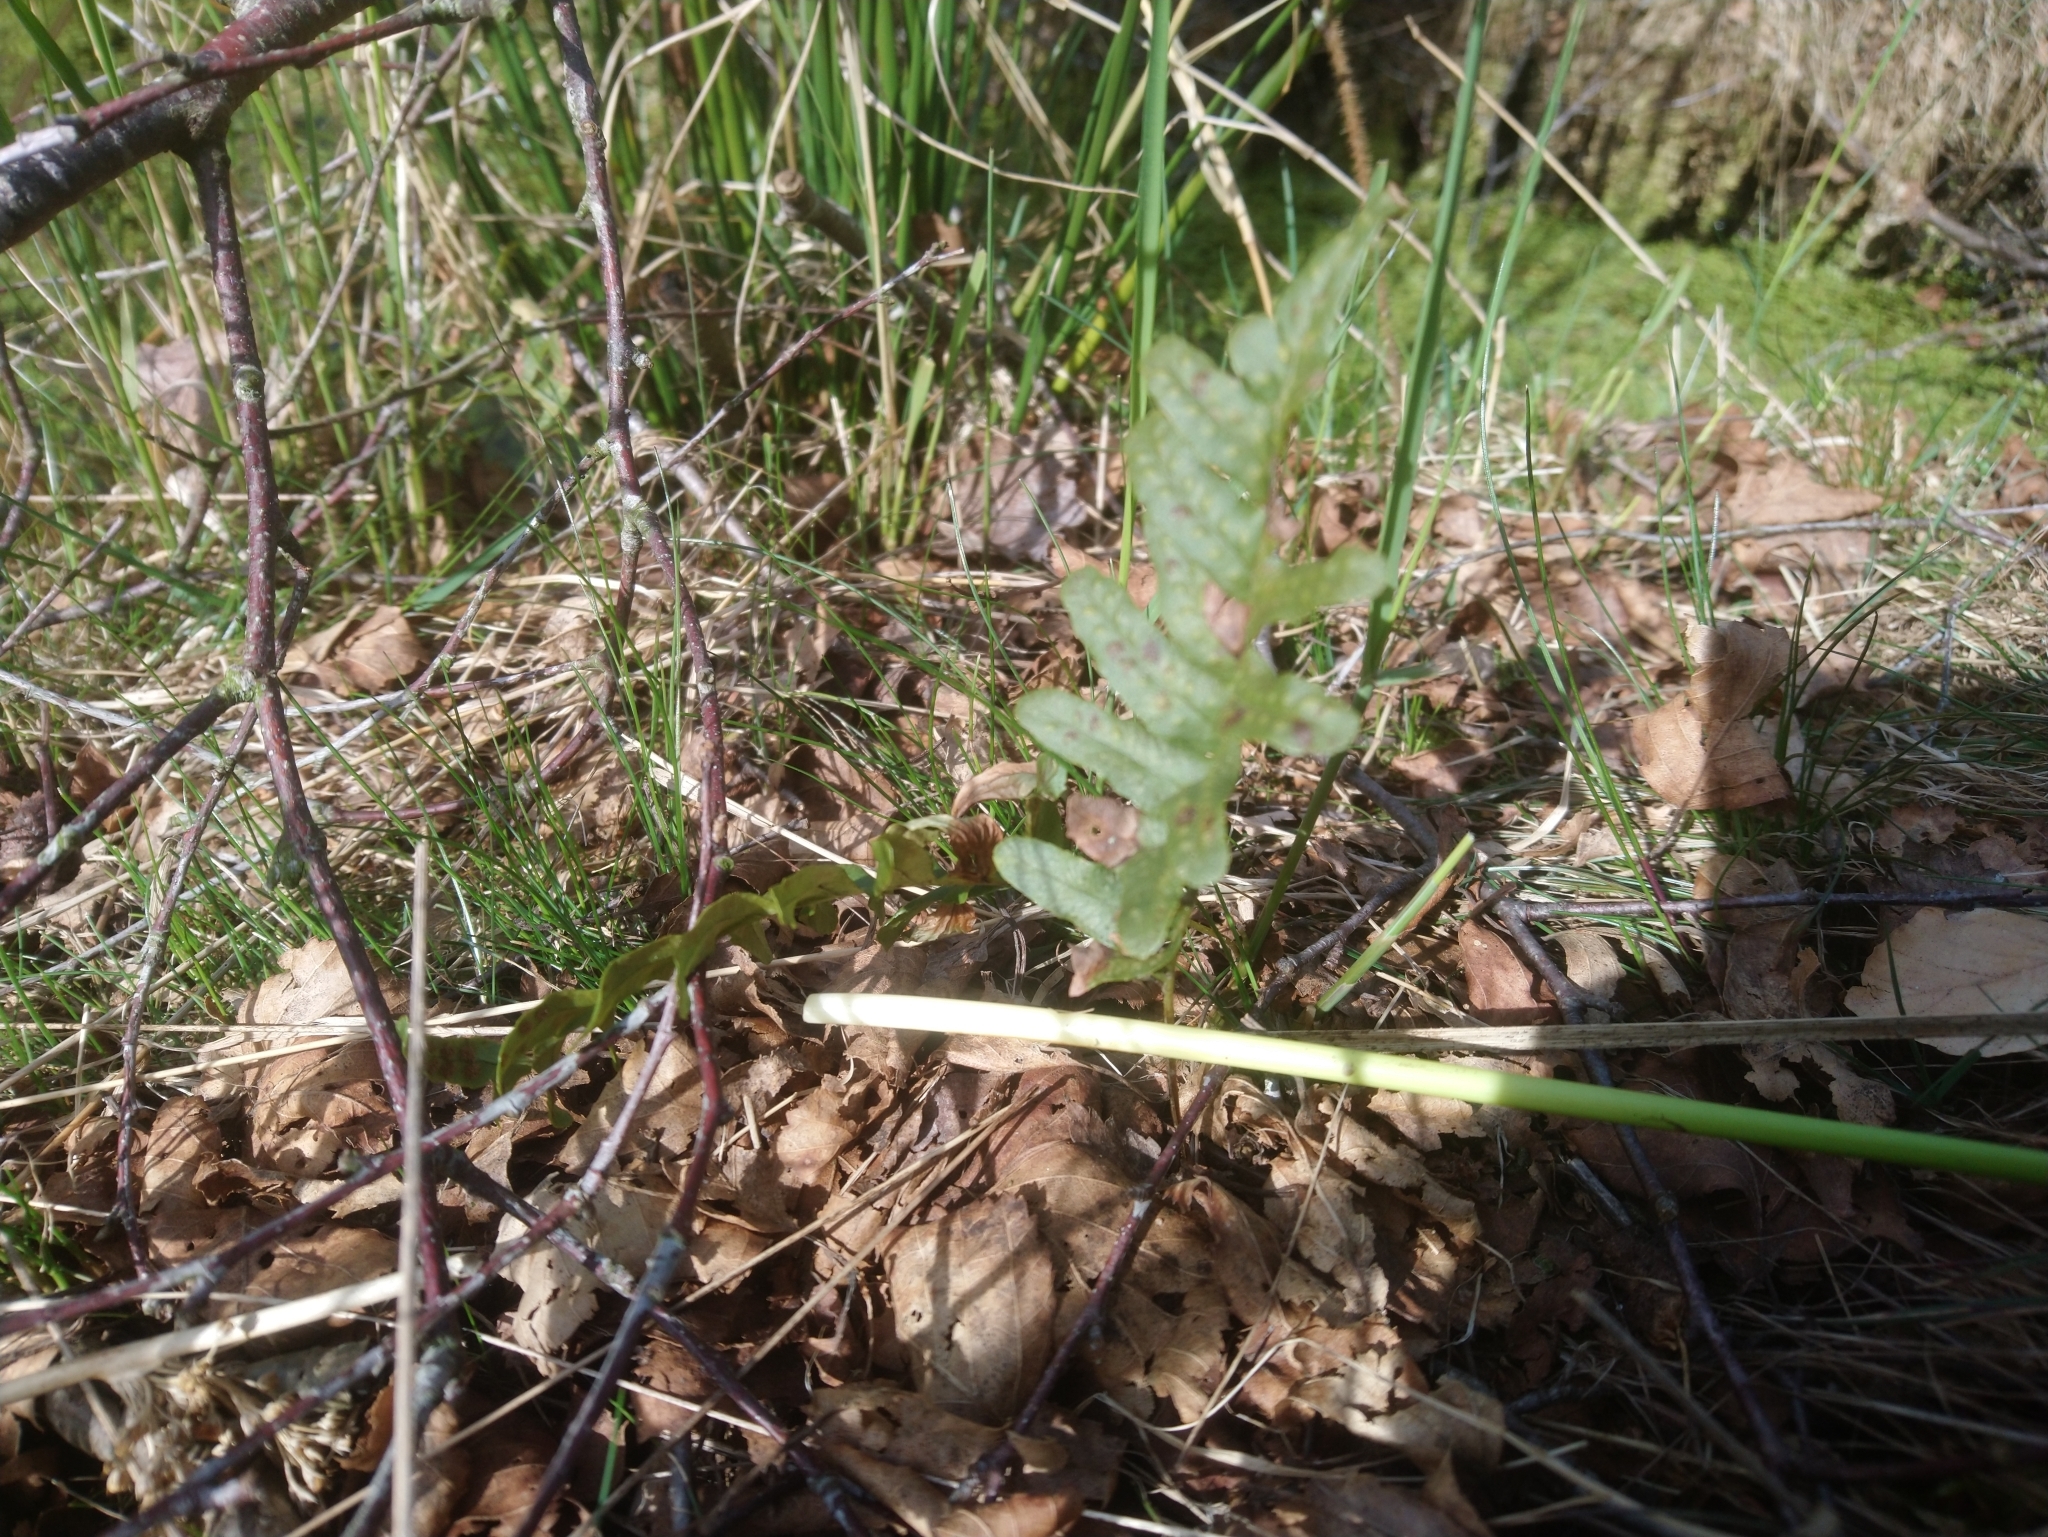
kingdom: Plantae
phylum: Tracheophyta
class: Polypodiopsida
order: Polypodiales
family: Polypodiaceae
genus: Polypodium
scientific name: Polypodium vulgare
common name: Common polypody
